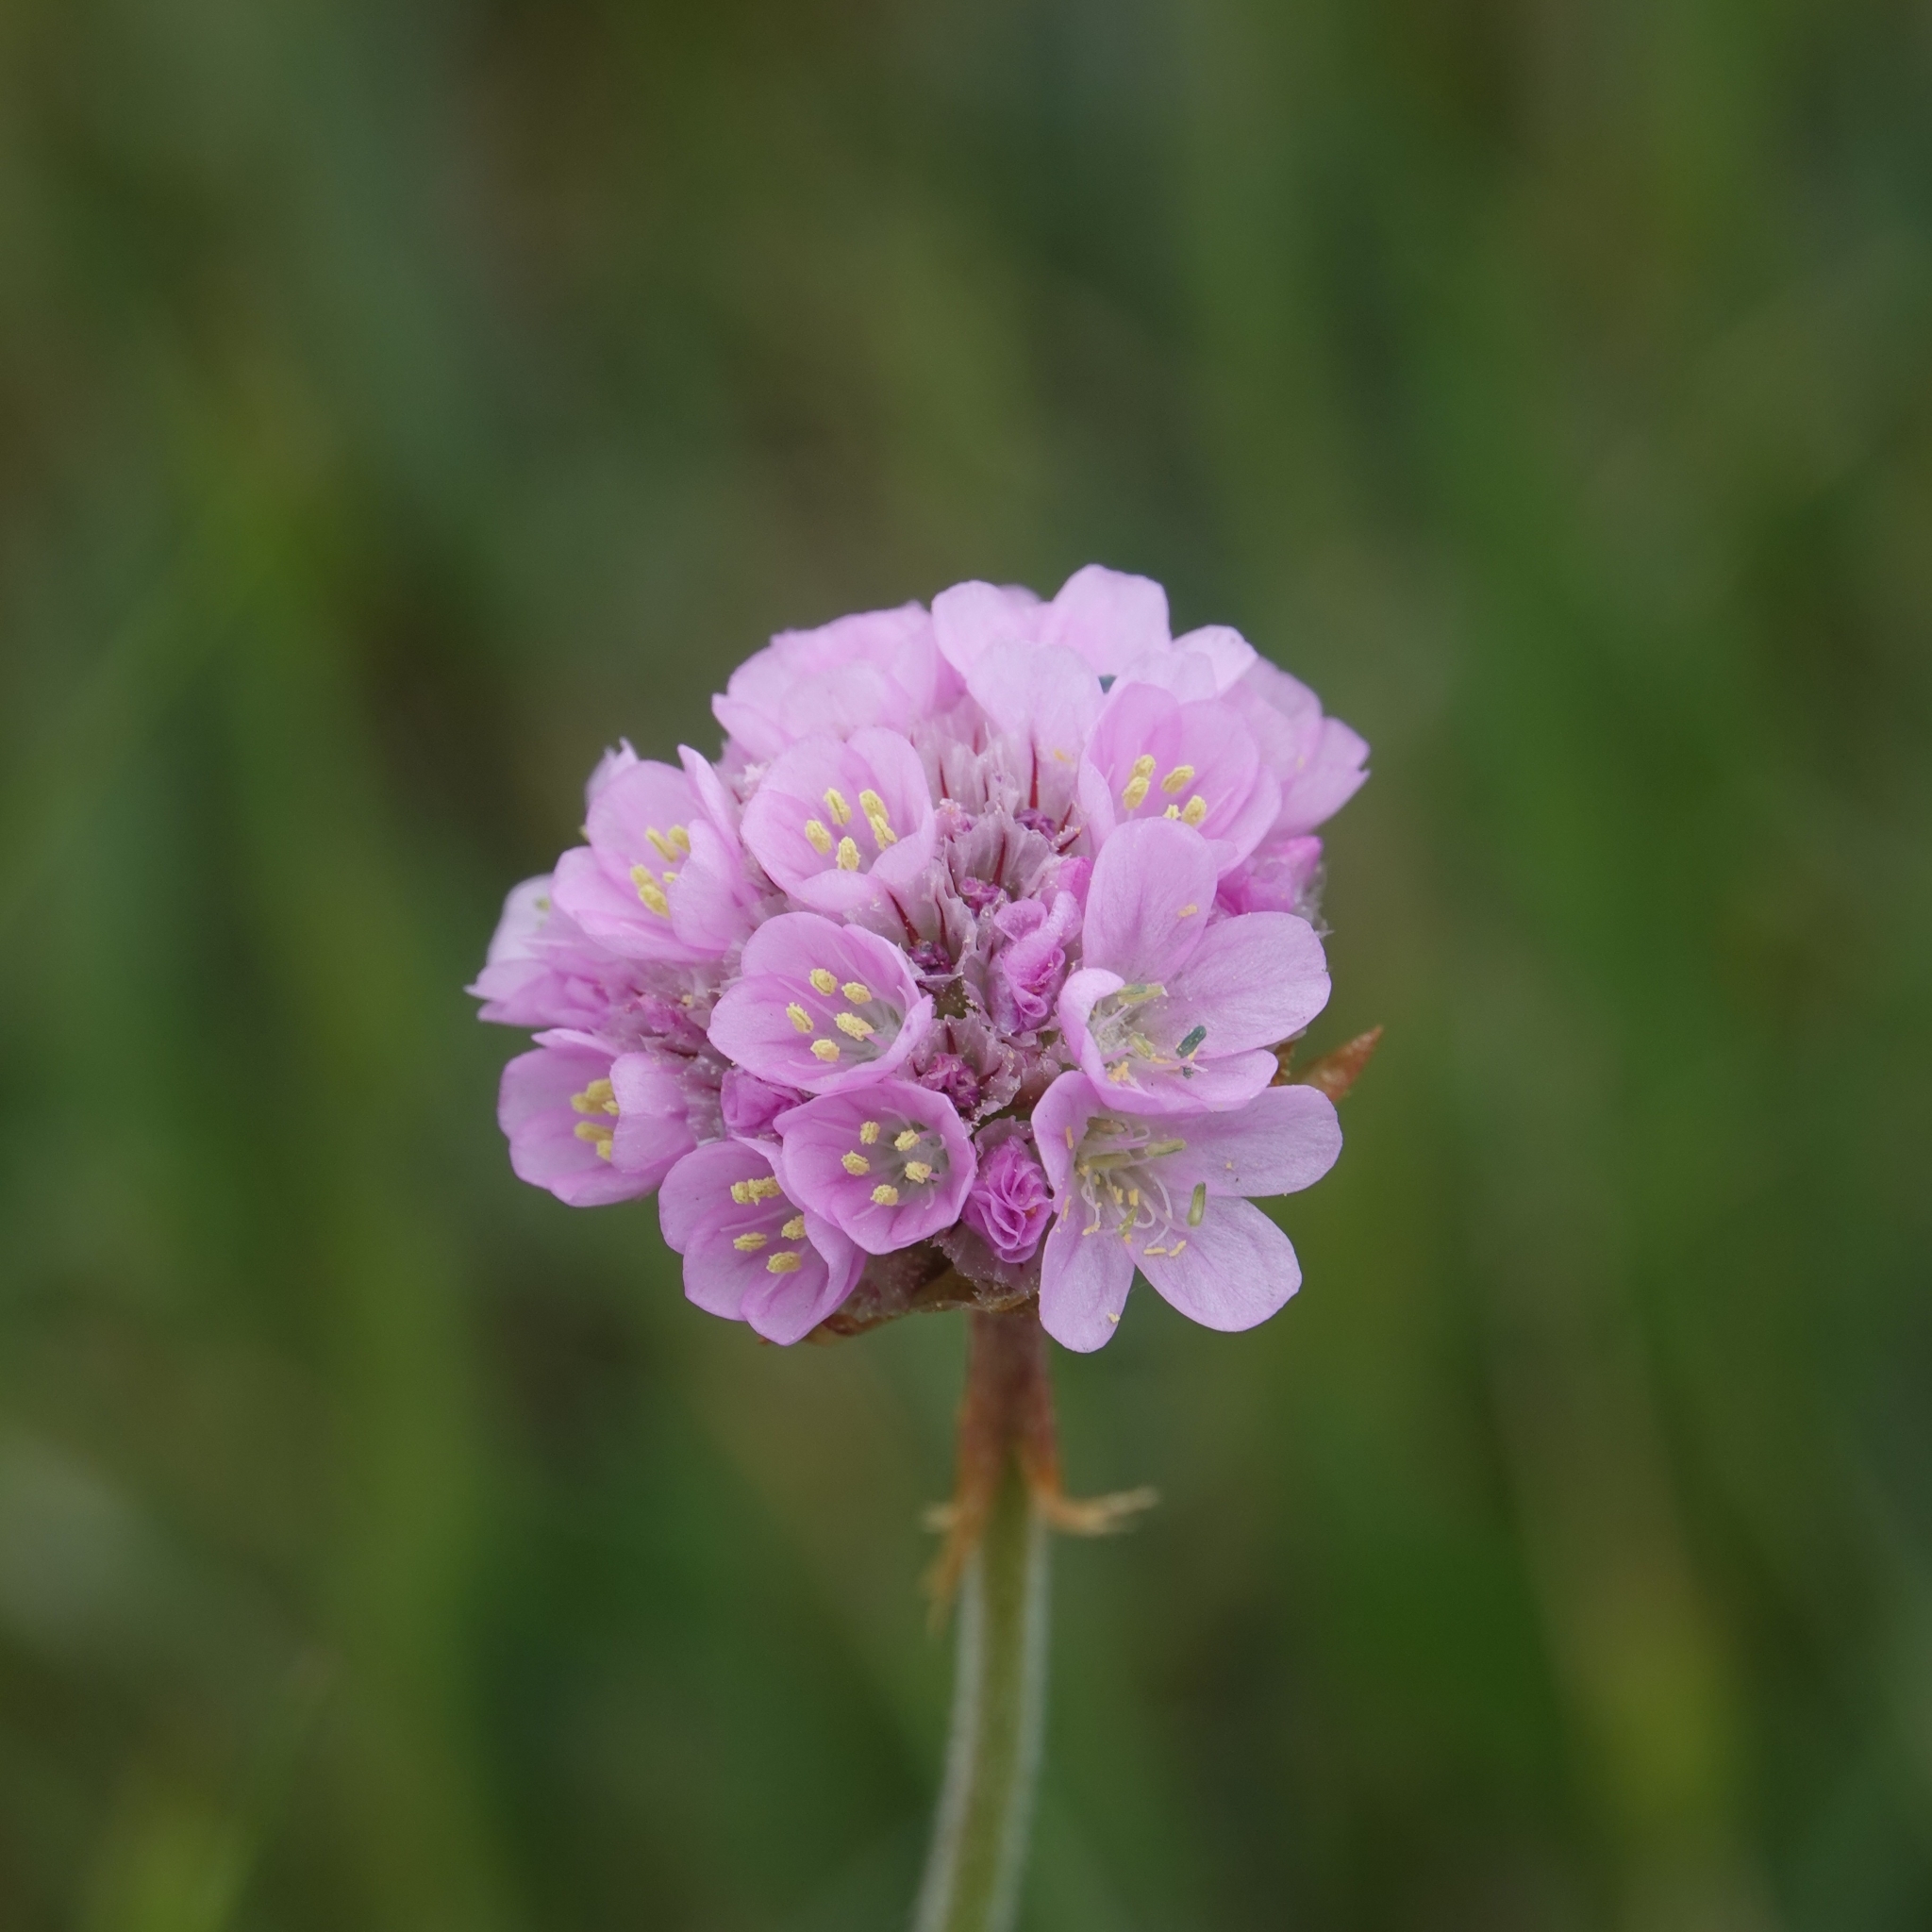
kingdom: Plantae
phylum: Tracheophyta
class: Magnoliopsida
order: Caryophyllales
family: Plumbaginaceae
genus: Armeria
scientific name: Armeria maritima
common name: Thrift
